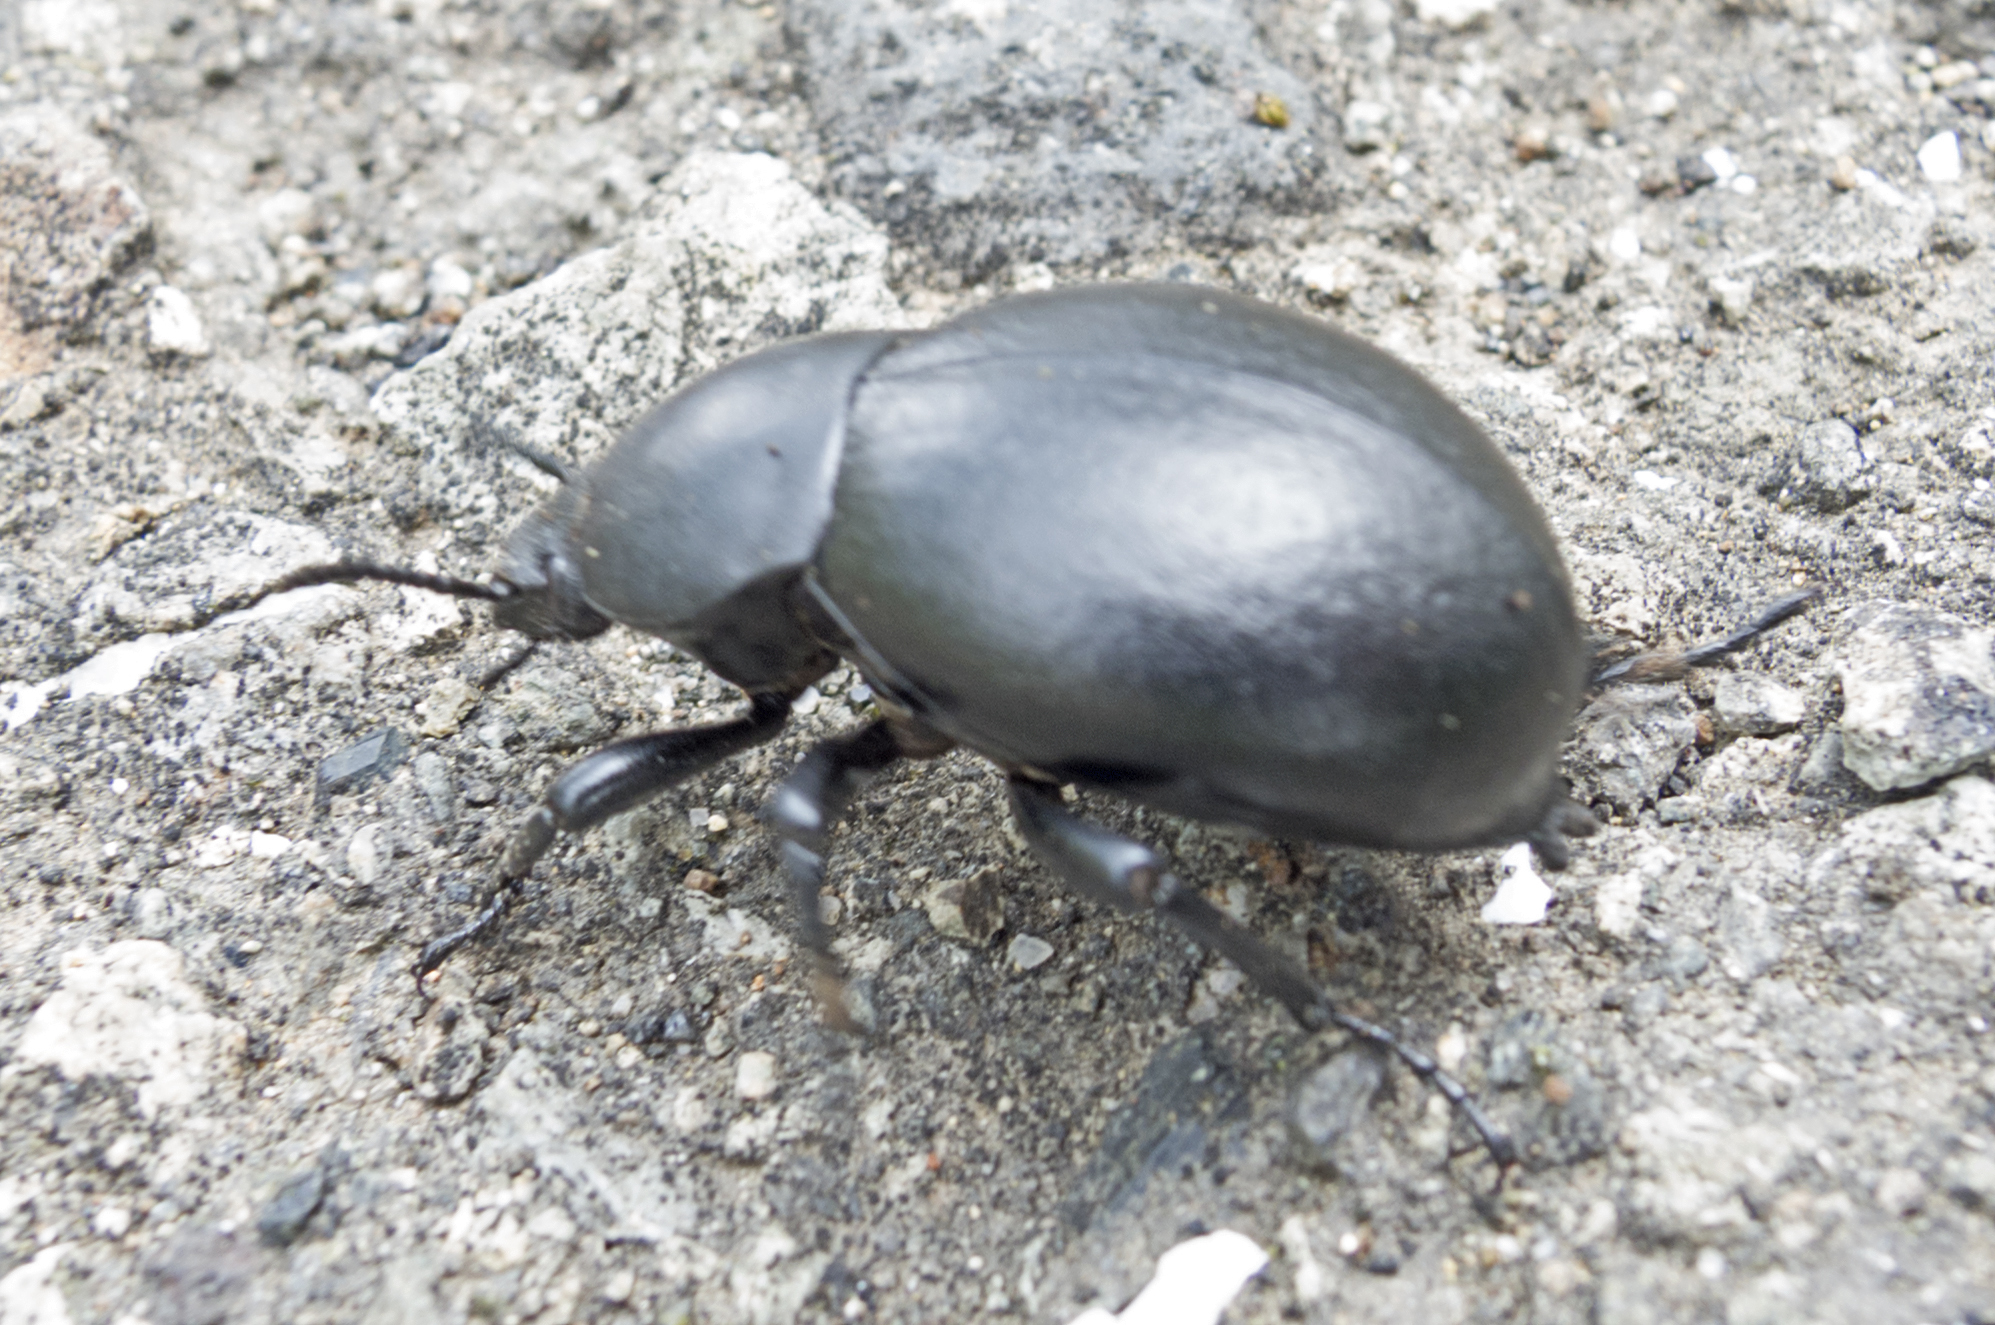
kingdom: Animalia
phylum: Arthropoda
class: Insecta
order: Coleoptera
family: Tenebrionidae
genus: Gnaptor
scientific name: Gnaptor spinimanus
